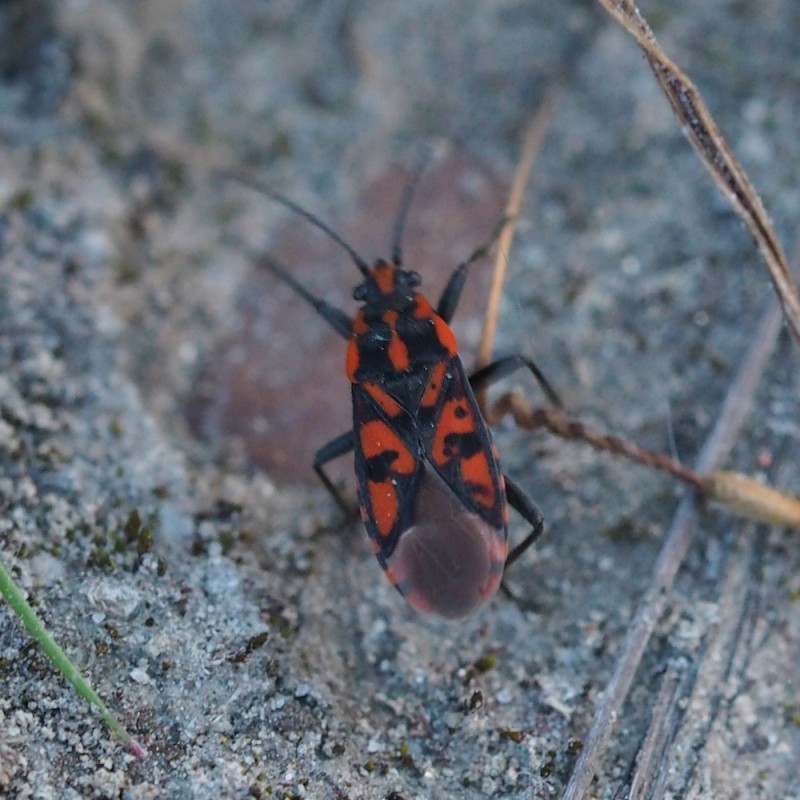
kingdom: Animalia
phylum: Arthropoda
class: Insecta
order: Hemiptera
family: Lygaeidae
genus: Spilostethus
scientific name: Spilostethus saxatilis
